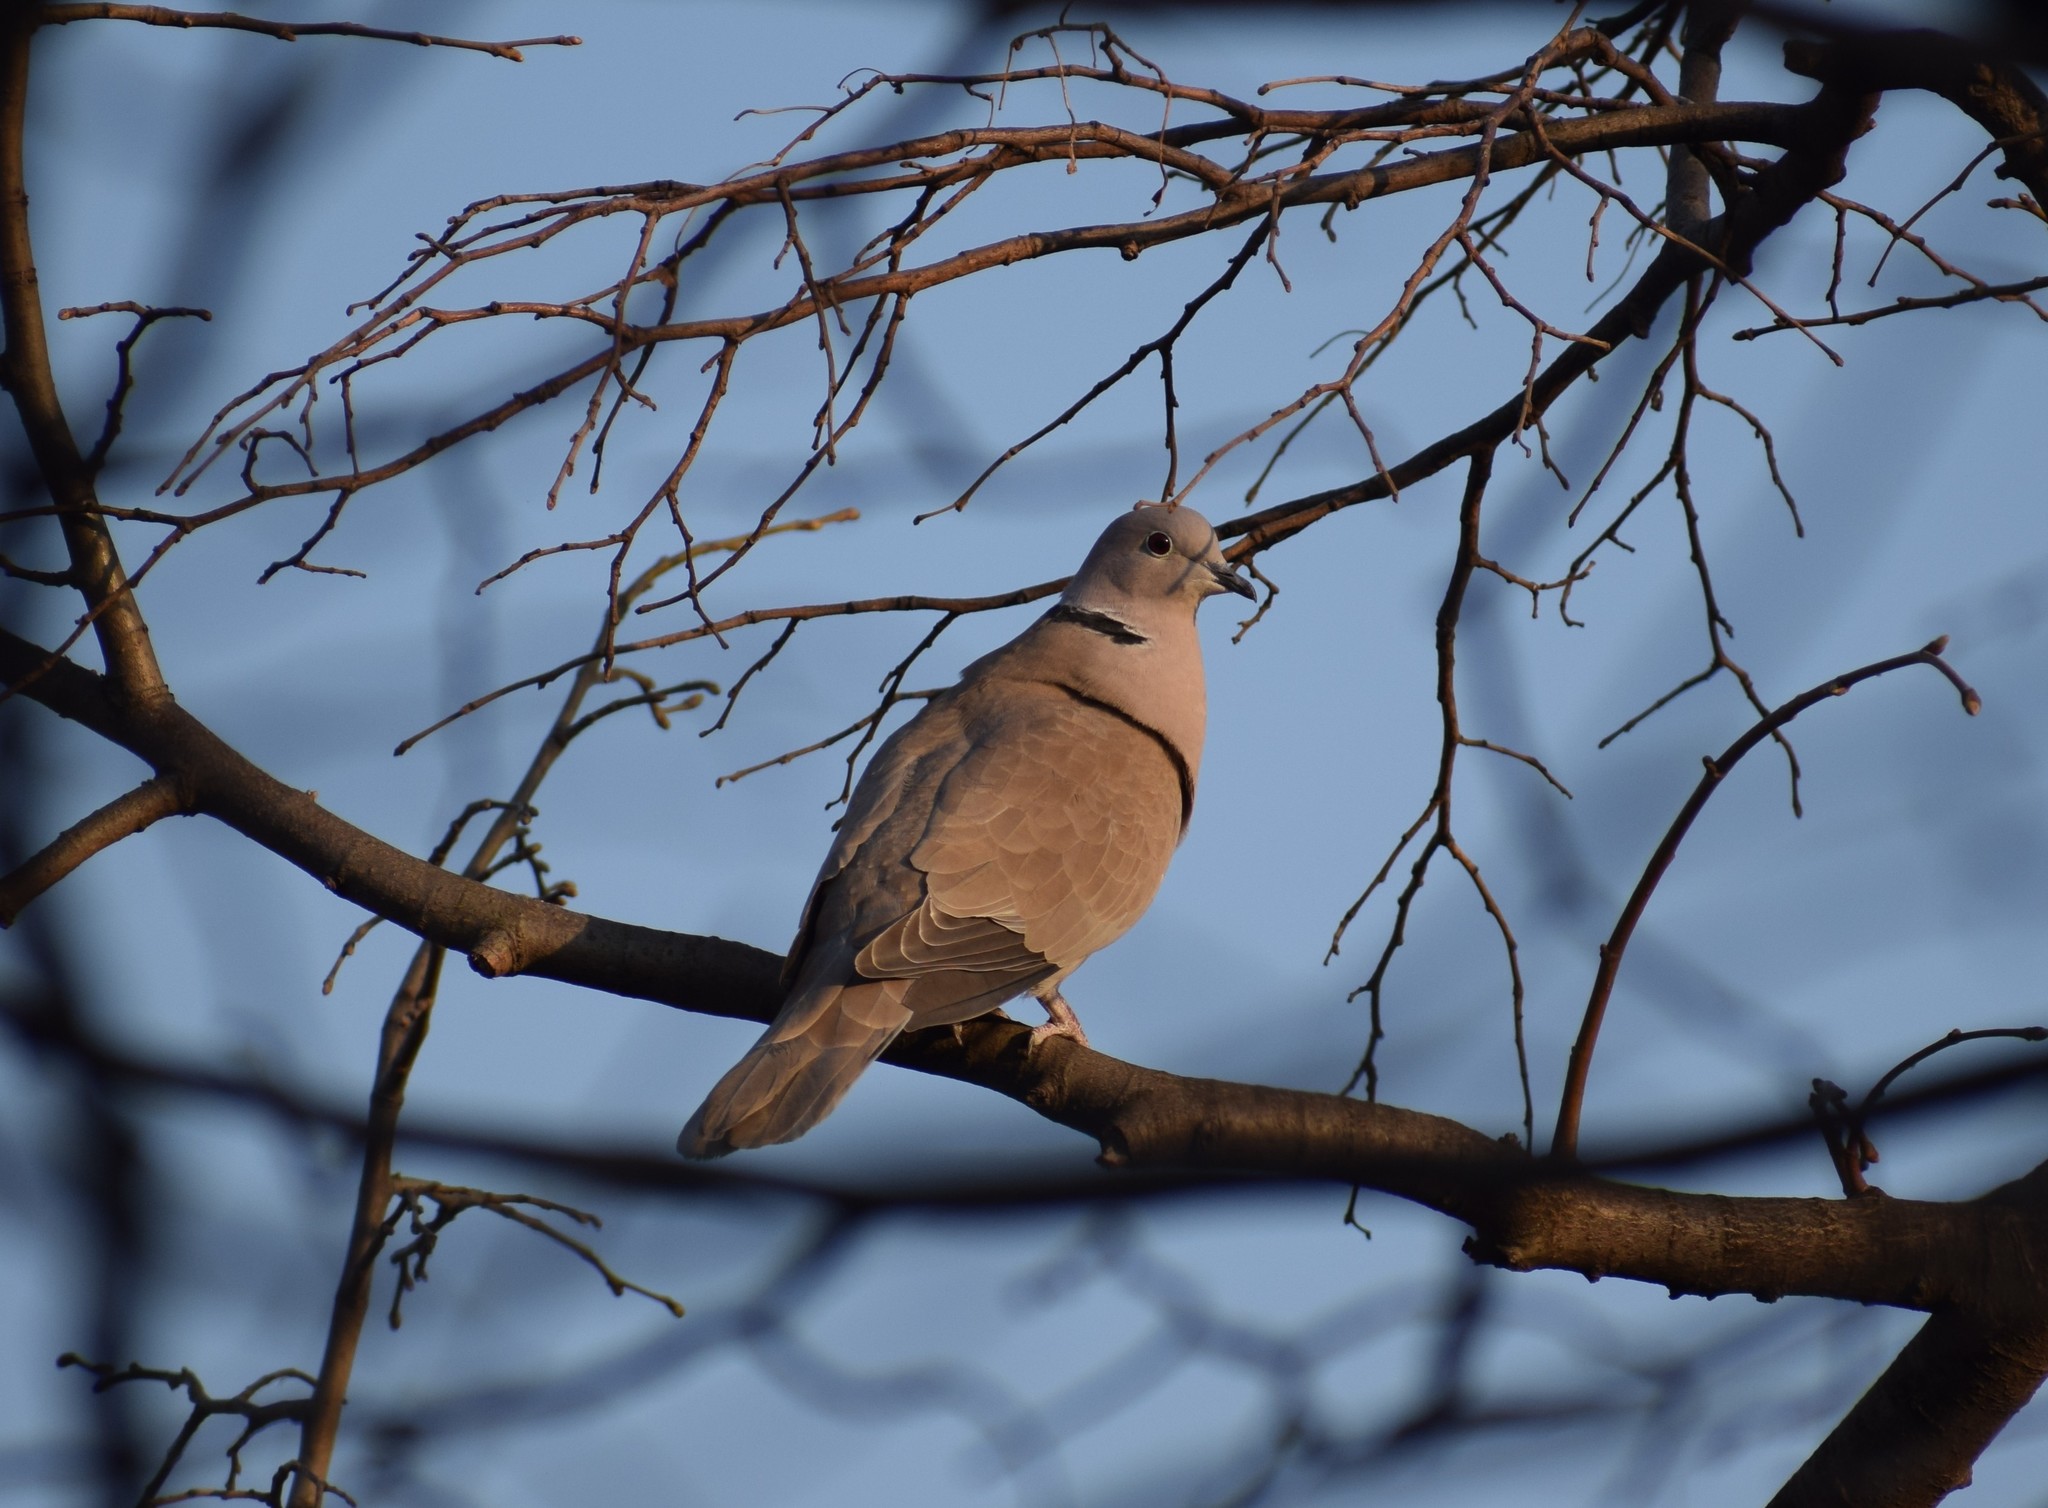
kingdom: Animalia
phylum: Chordata
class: Aves
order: Columbiformes
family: Columbidae
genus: Streptopelia
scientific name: Streptopelia decaocto
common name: Eurasian collared dove
